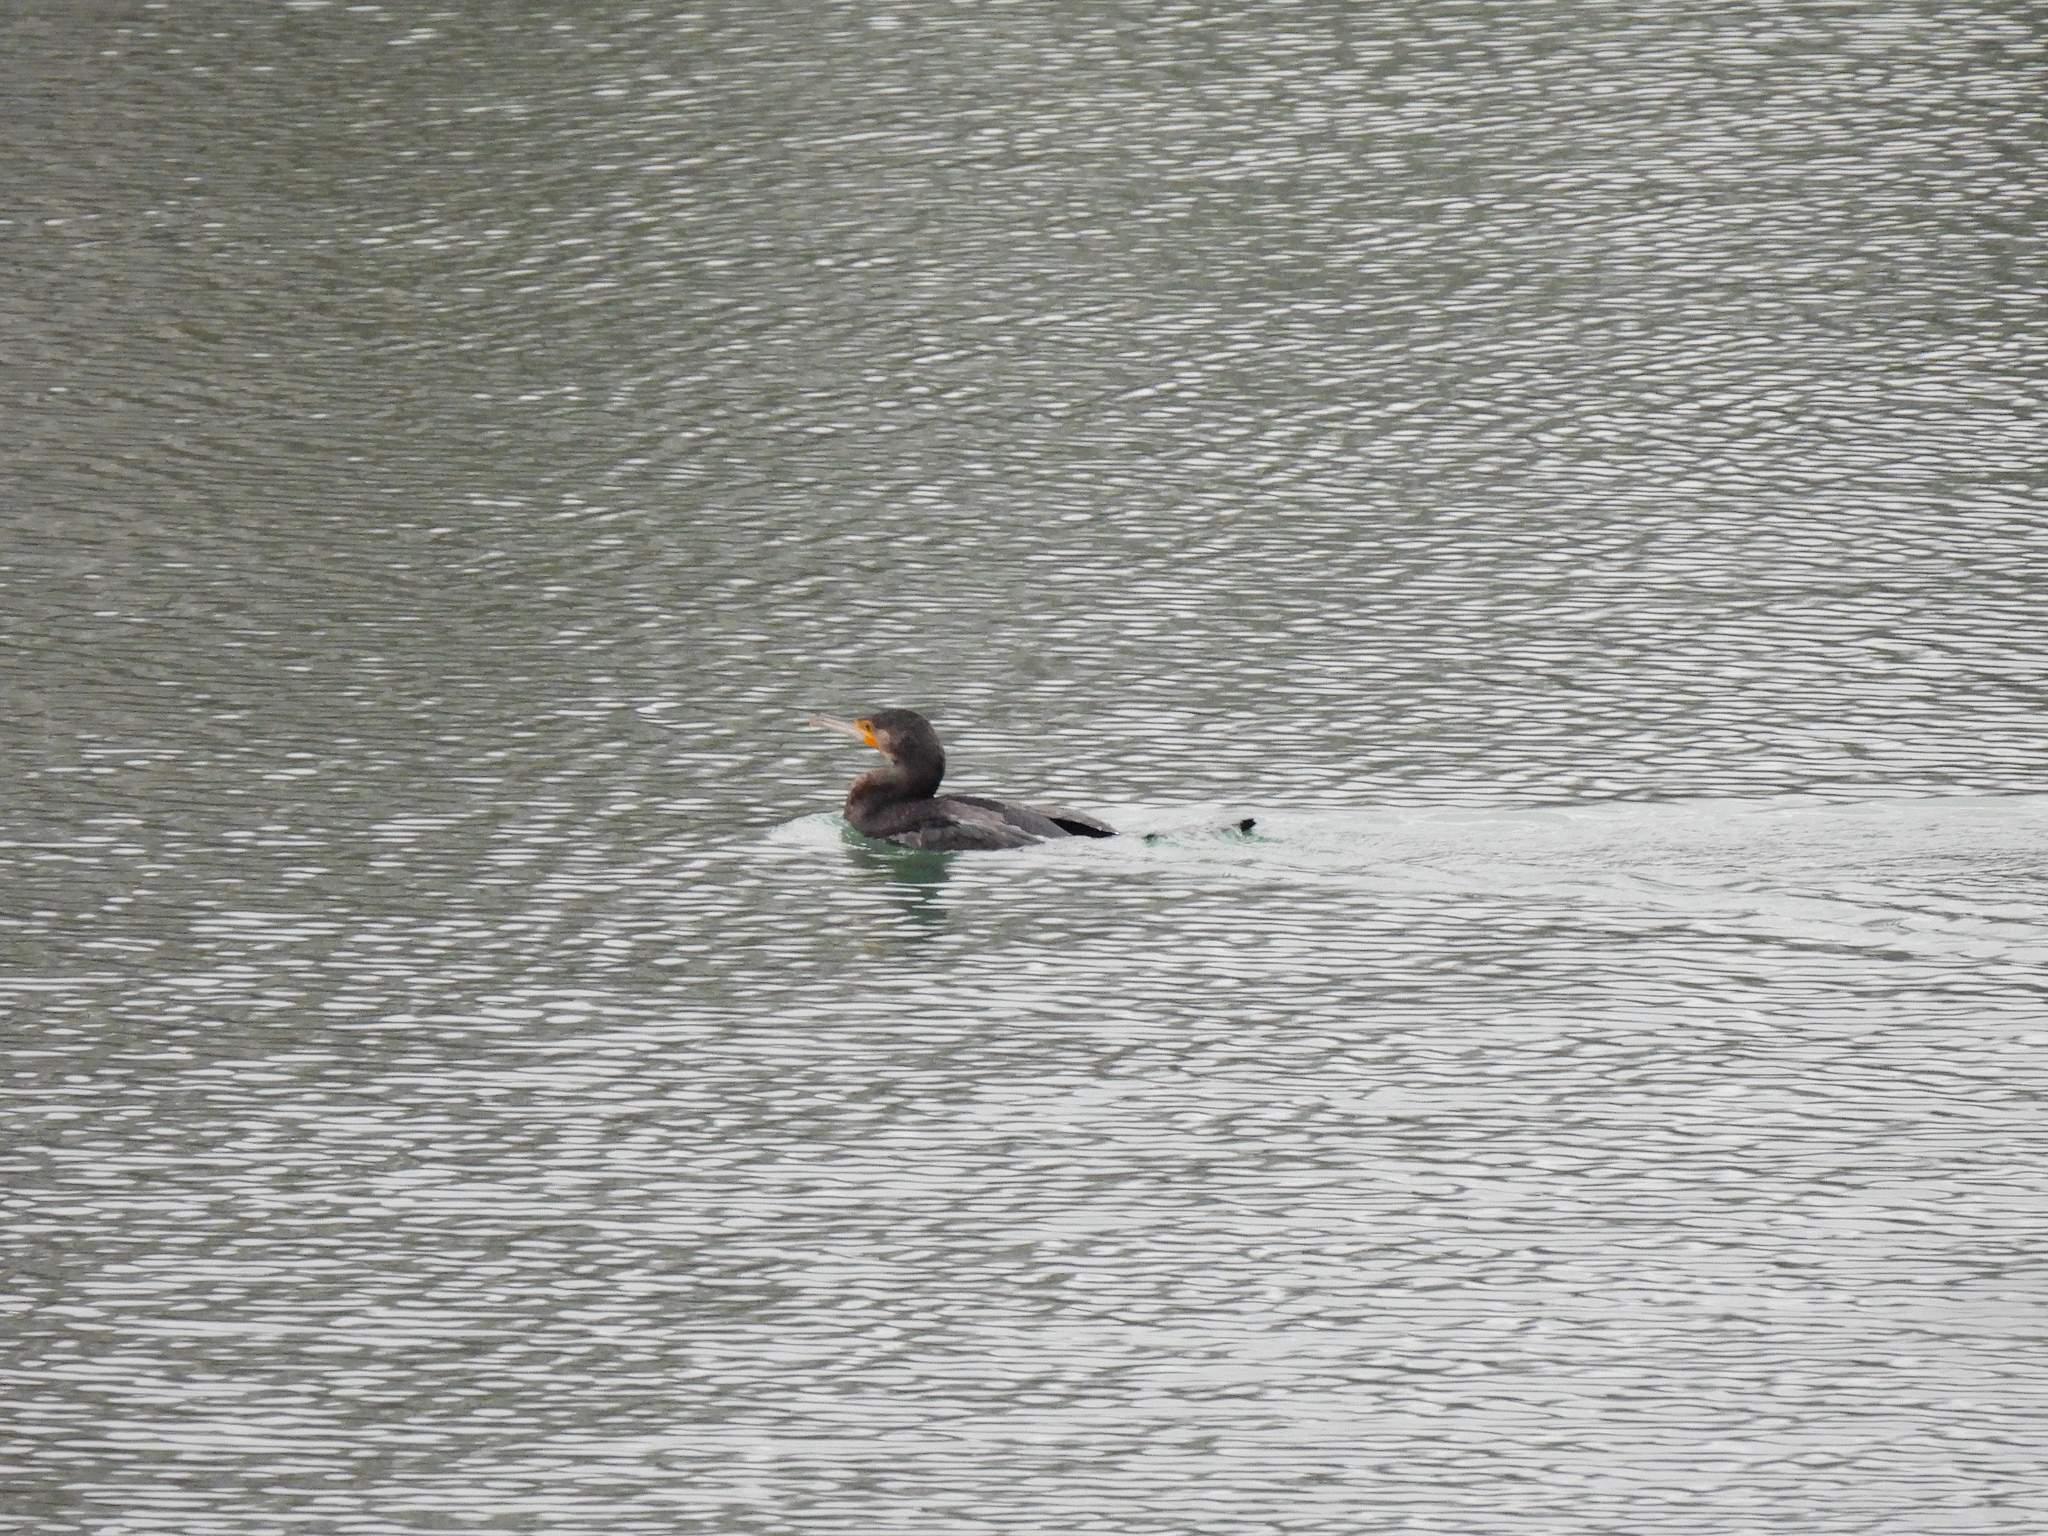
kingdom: Animalia
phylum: Chordata
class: Aves
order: Suliformes
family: Phalacrocoracidae
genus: Phalacrocorax
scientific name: Phalacrocorax carbo
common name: Great cormorant
